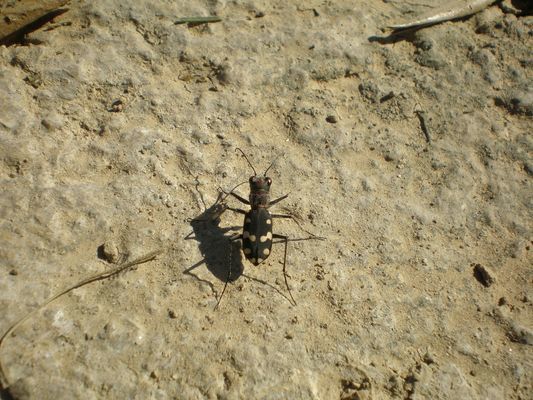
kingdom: Animalia
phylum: Arthropoda
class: Insecta
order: Coleoptera
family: Carabidae
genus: Cephalota
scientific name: Cephalota maura
